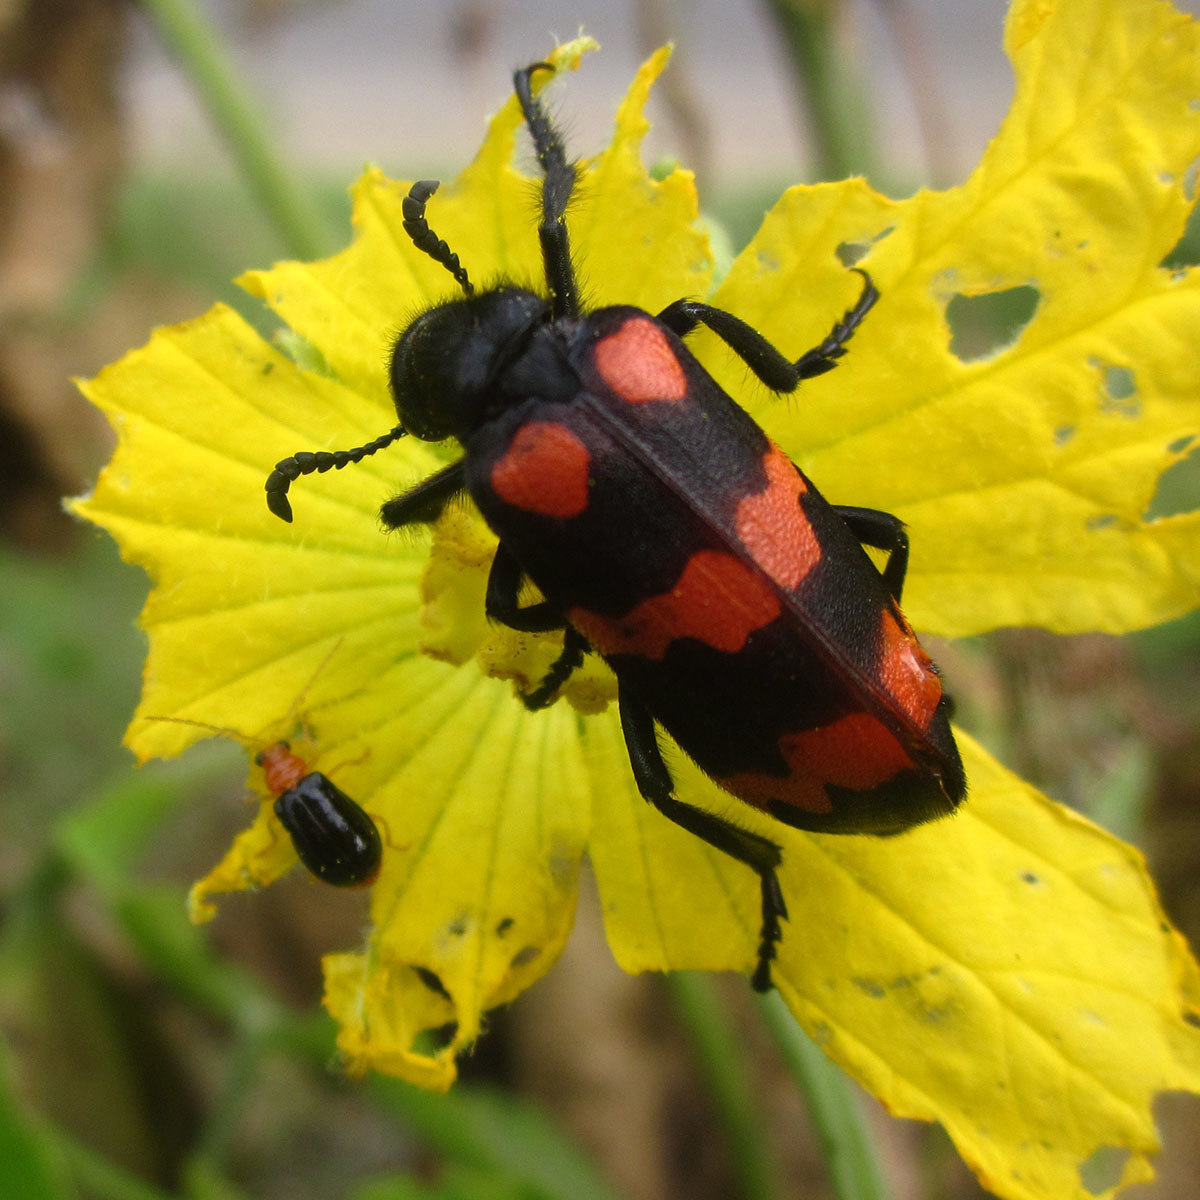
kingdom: Animalia
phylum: Arthropoda
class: Insecta
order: Coleoptera
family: Meloidae
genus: Hycleus
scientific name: Hycleus biundulatus
